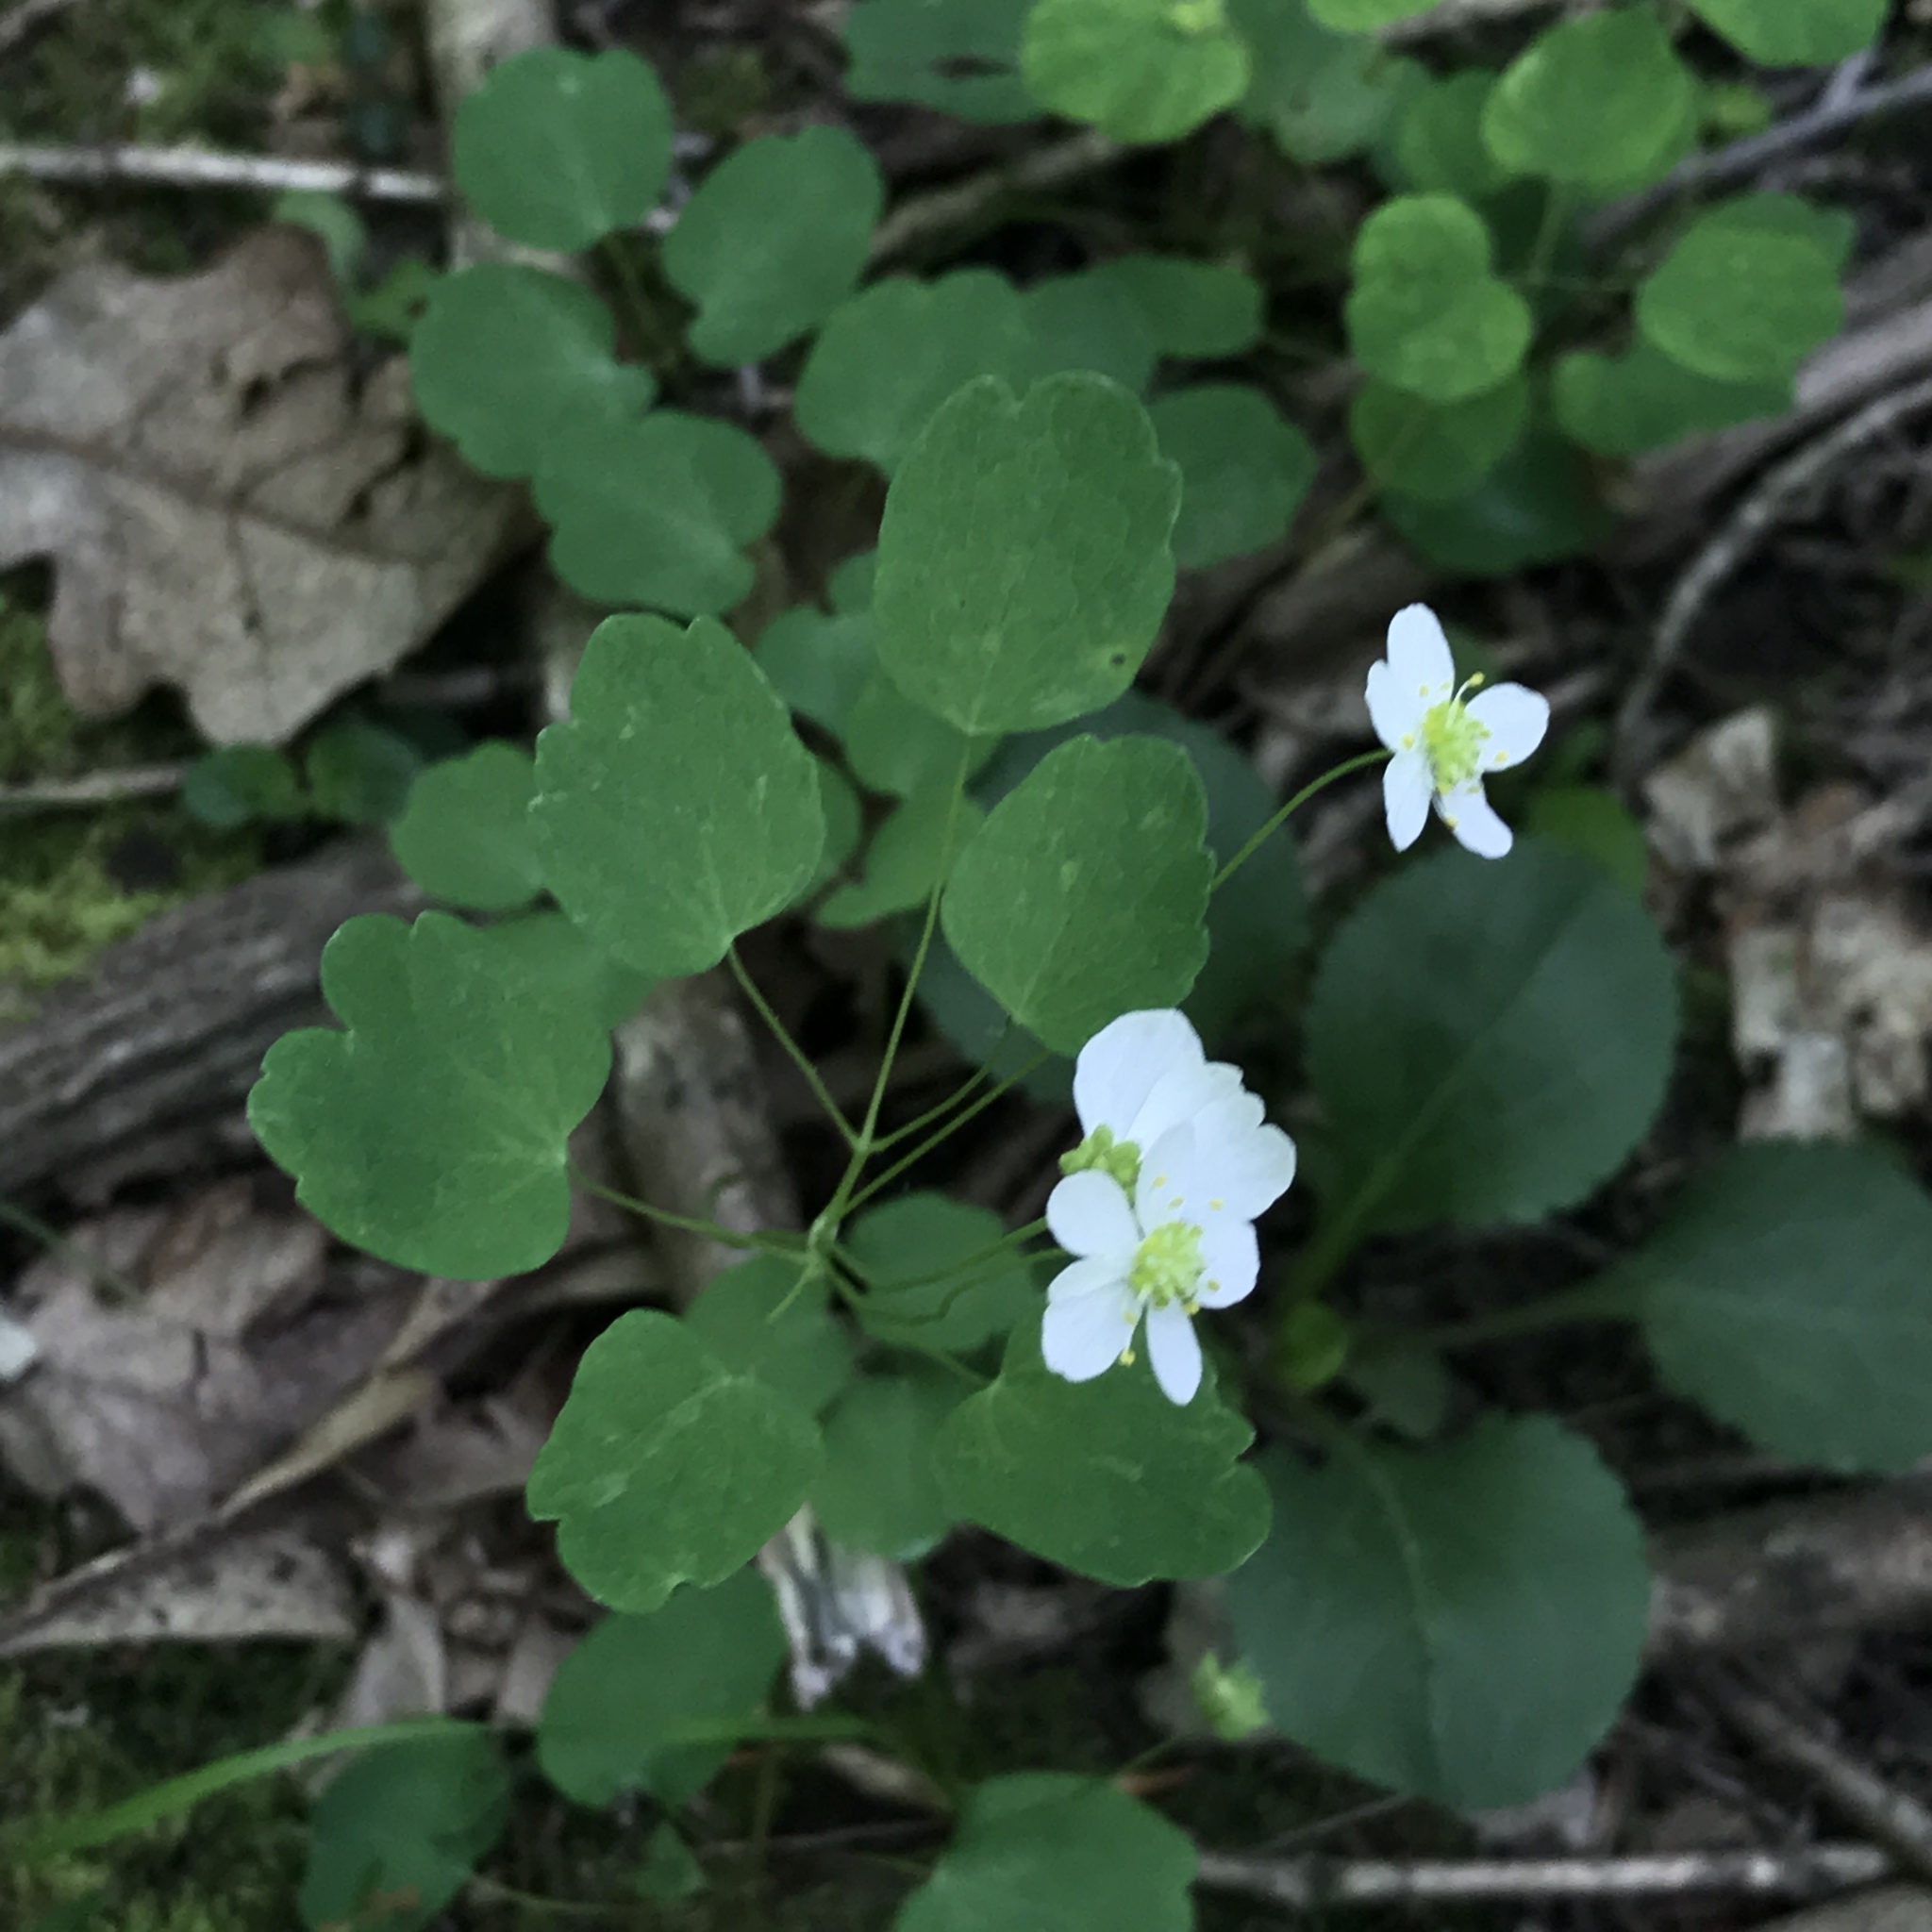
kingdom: Plantae
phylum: Tracheophyta
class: Magnoliopsida
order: Ranunculales
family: Ranunculaceae
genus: Thalictrum
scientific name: Thalictrum thalictroides
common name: Rue-anemone
